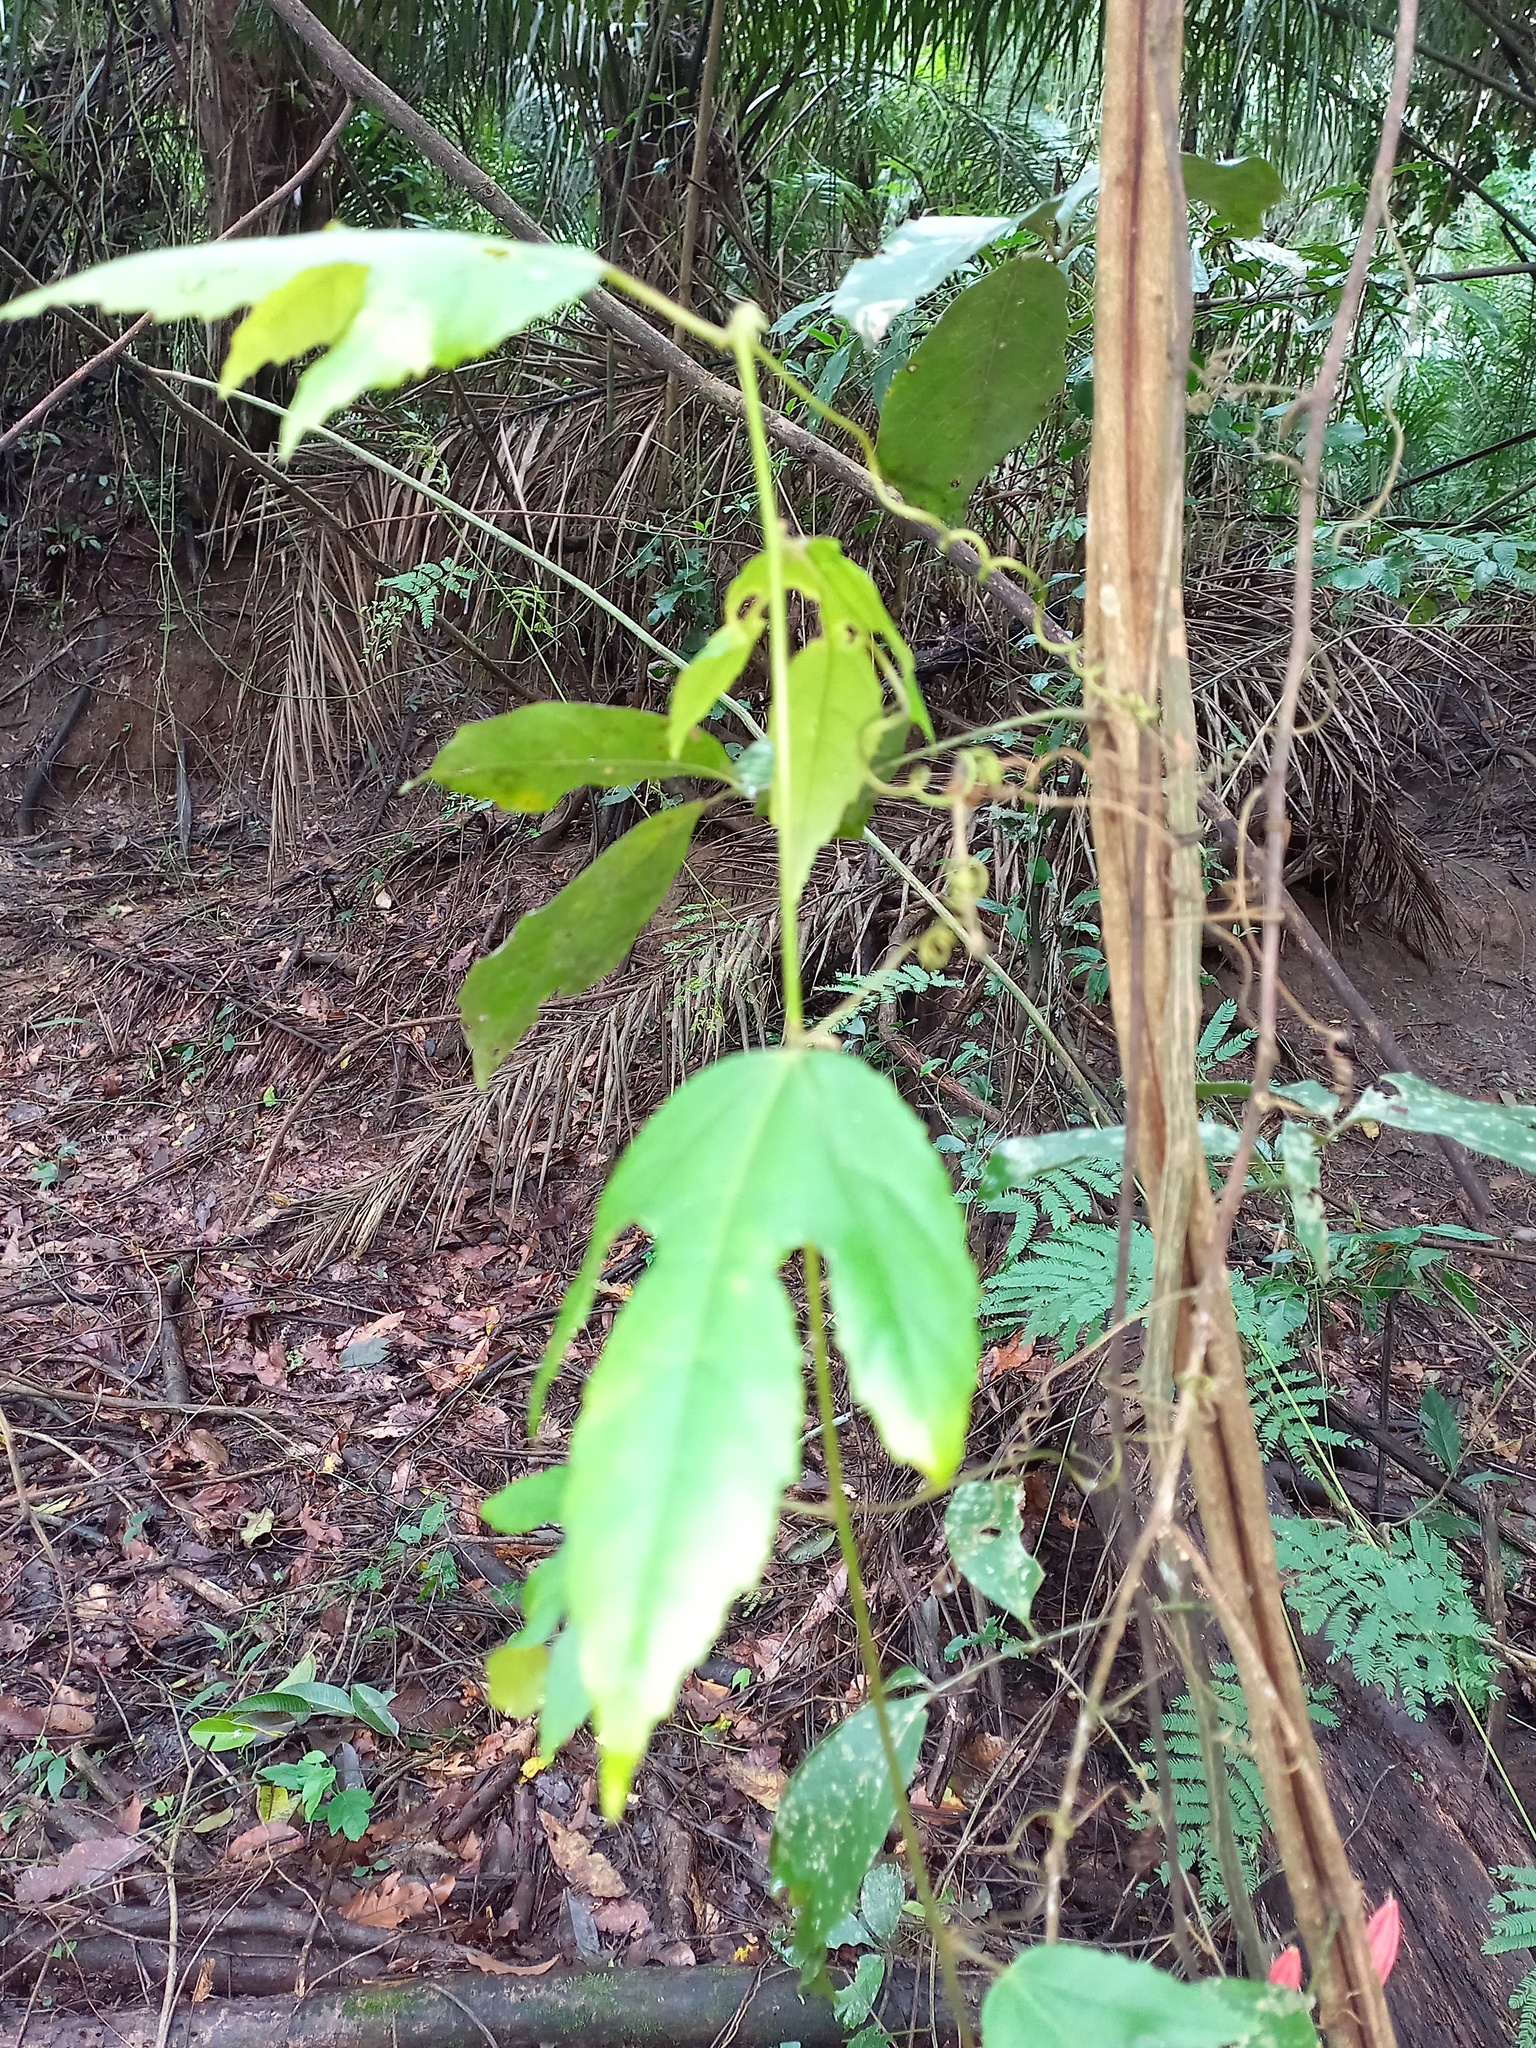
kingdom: Plantae
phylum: Tracheophyta
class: Magnoliopsida
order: Malpighiales
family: Passifloraceae
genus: Passiflora
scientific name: Passiflora quadriglandulosa
